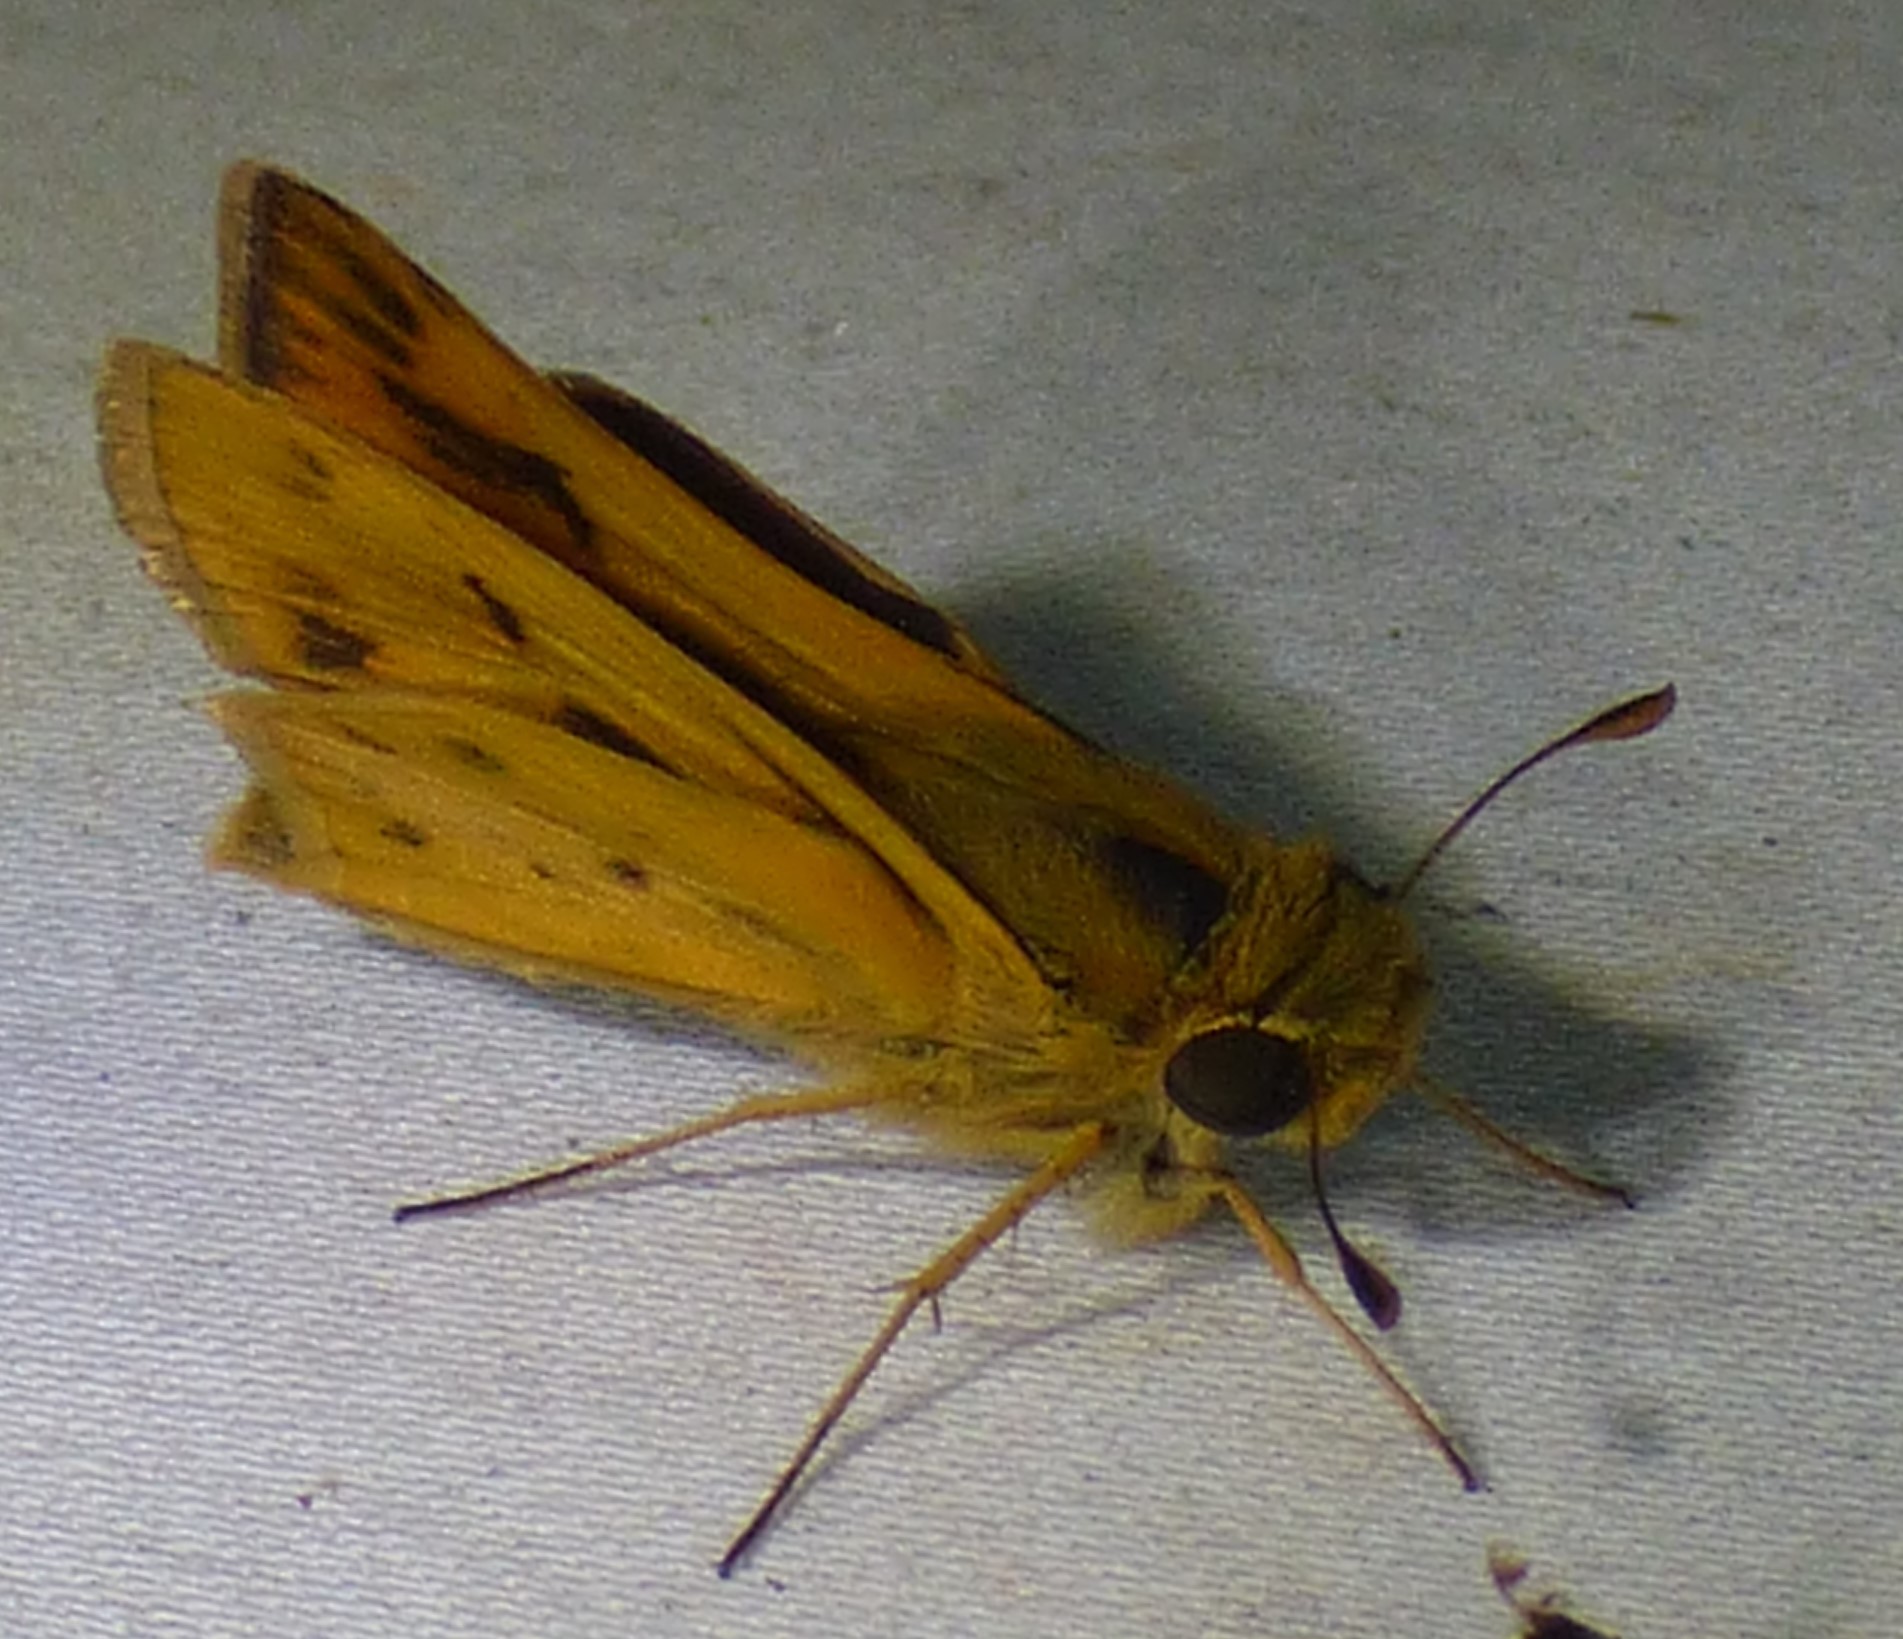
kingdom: Animalia
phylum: Arthropoda
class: Insecta
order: Lepidoptera
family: Hesperiidae
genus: Hylephila
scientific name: Hylephila phyleus
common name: Fiery skipper
